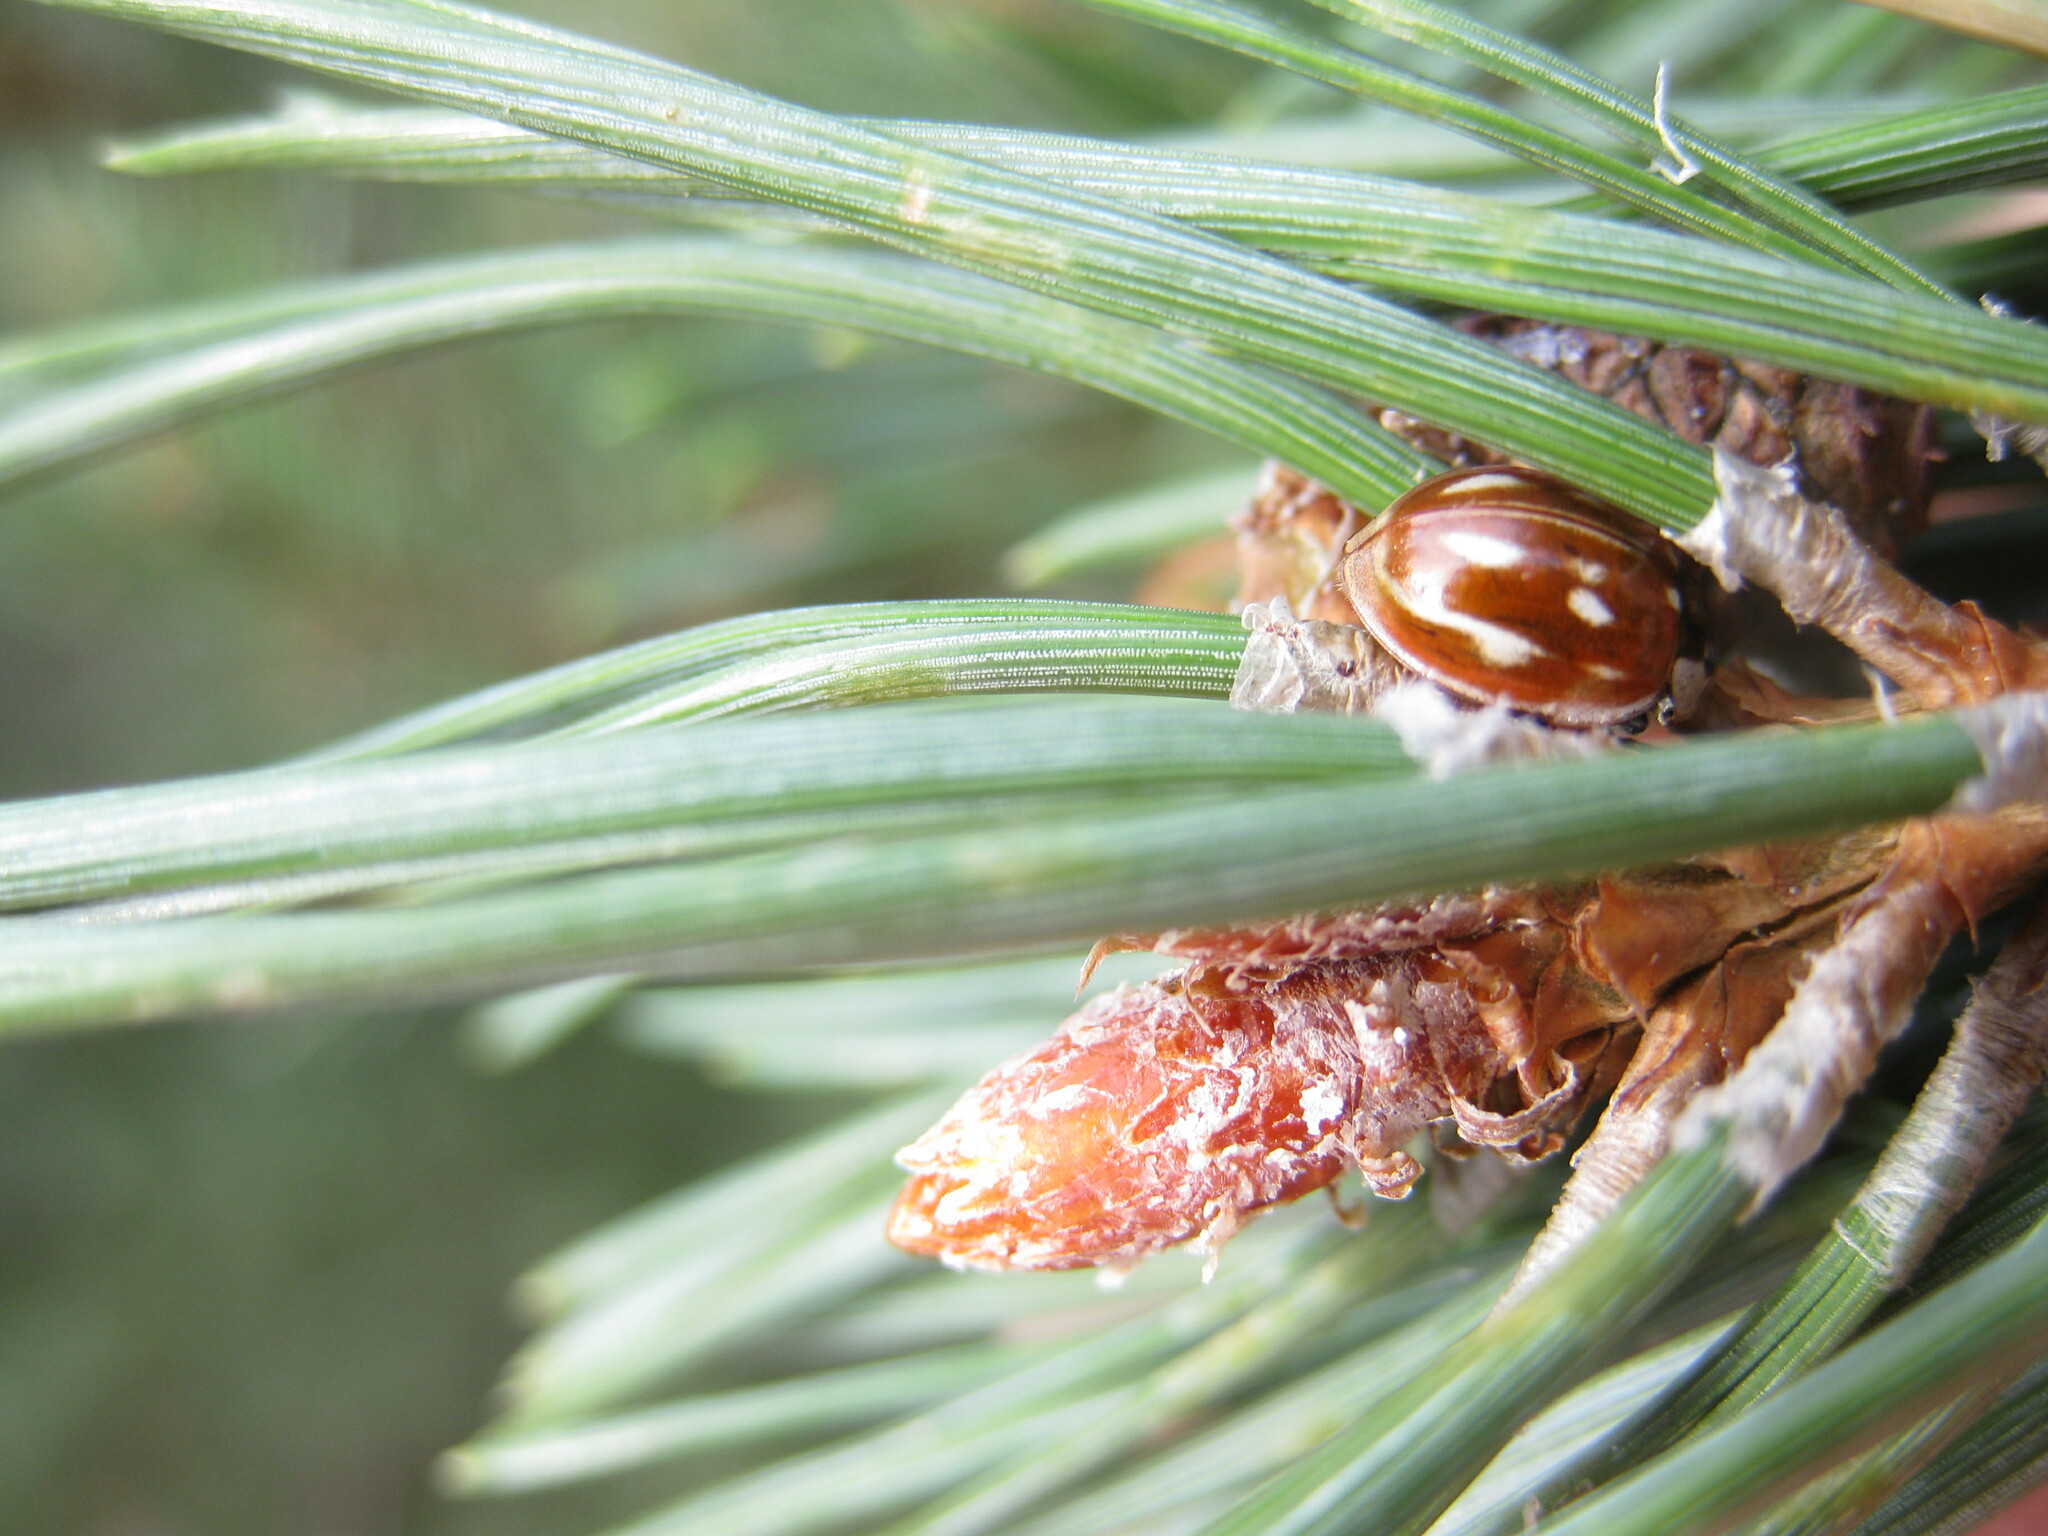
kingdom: Animalia
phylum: Arthropoda
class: Insecta
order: Coleoptera
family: Coccinellidae
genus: Myzia
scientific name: Myzia oblongoguttata
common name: Striped ladybird
